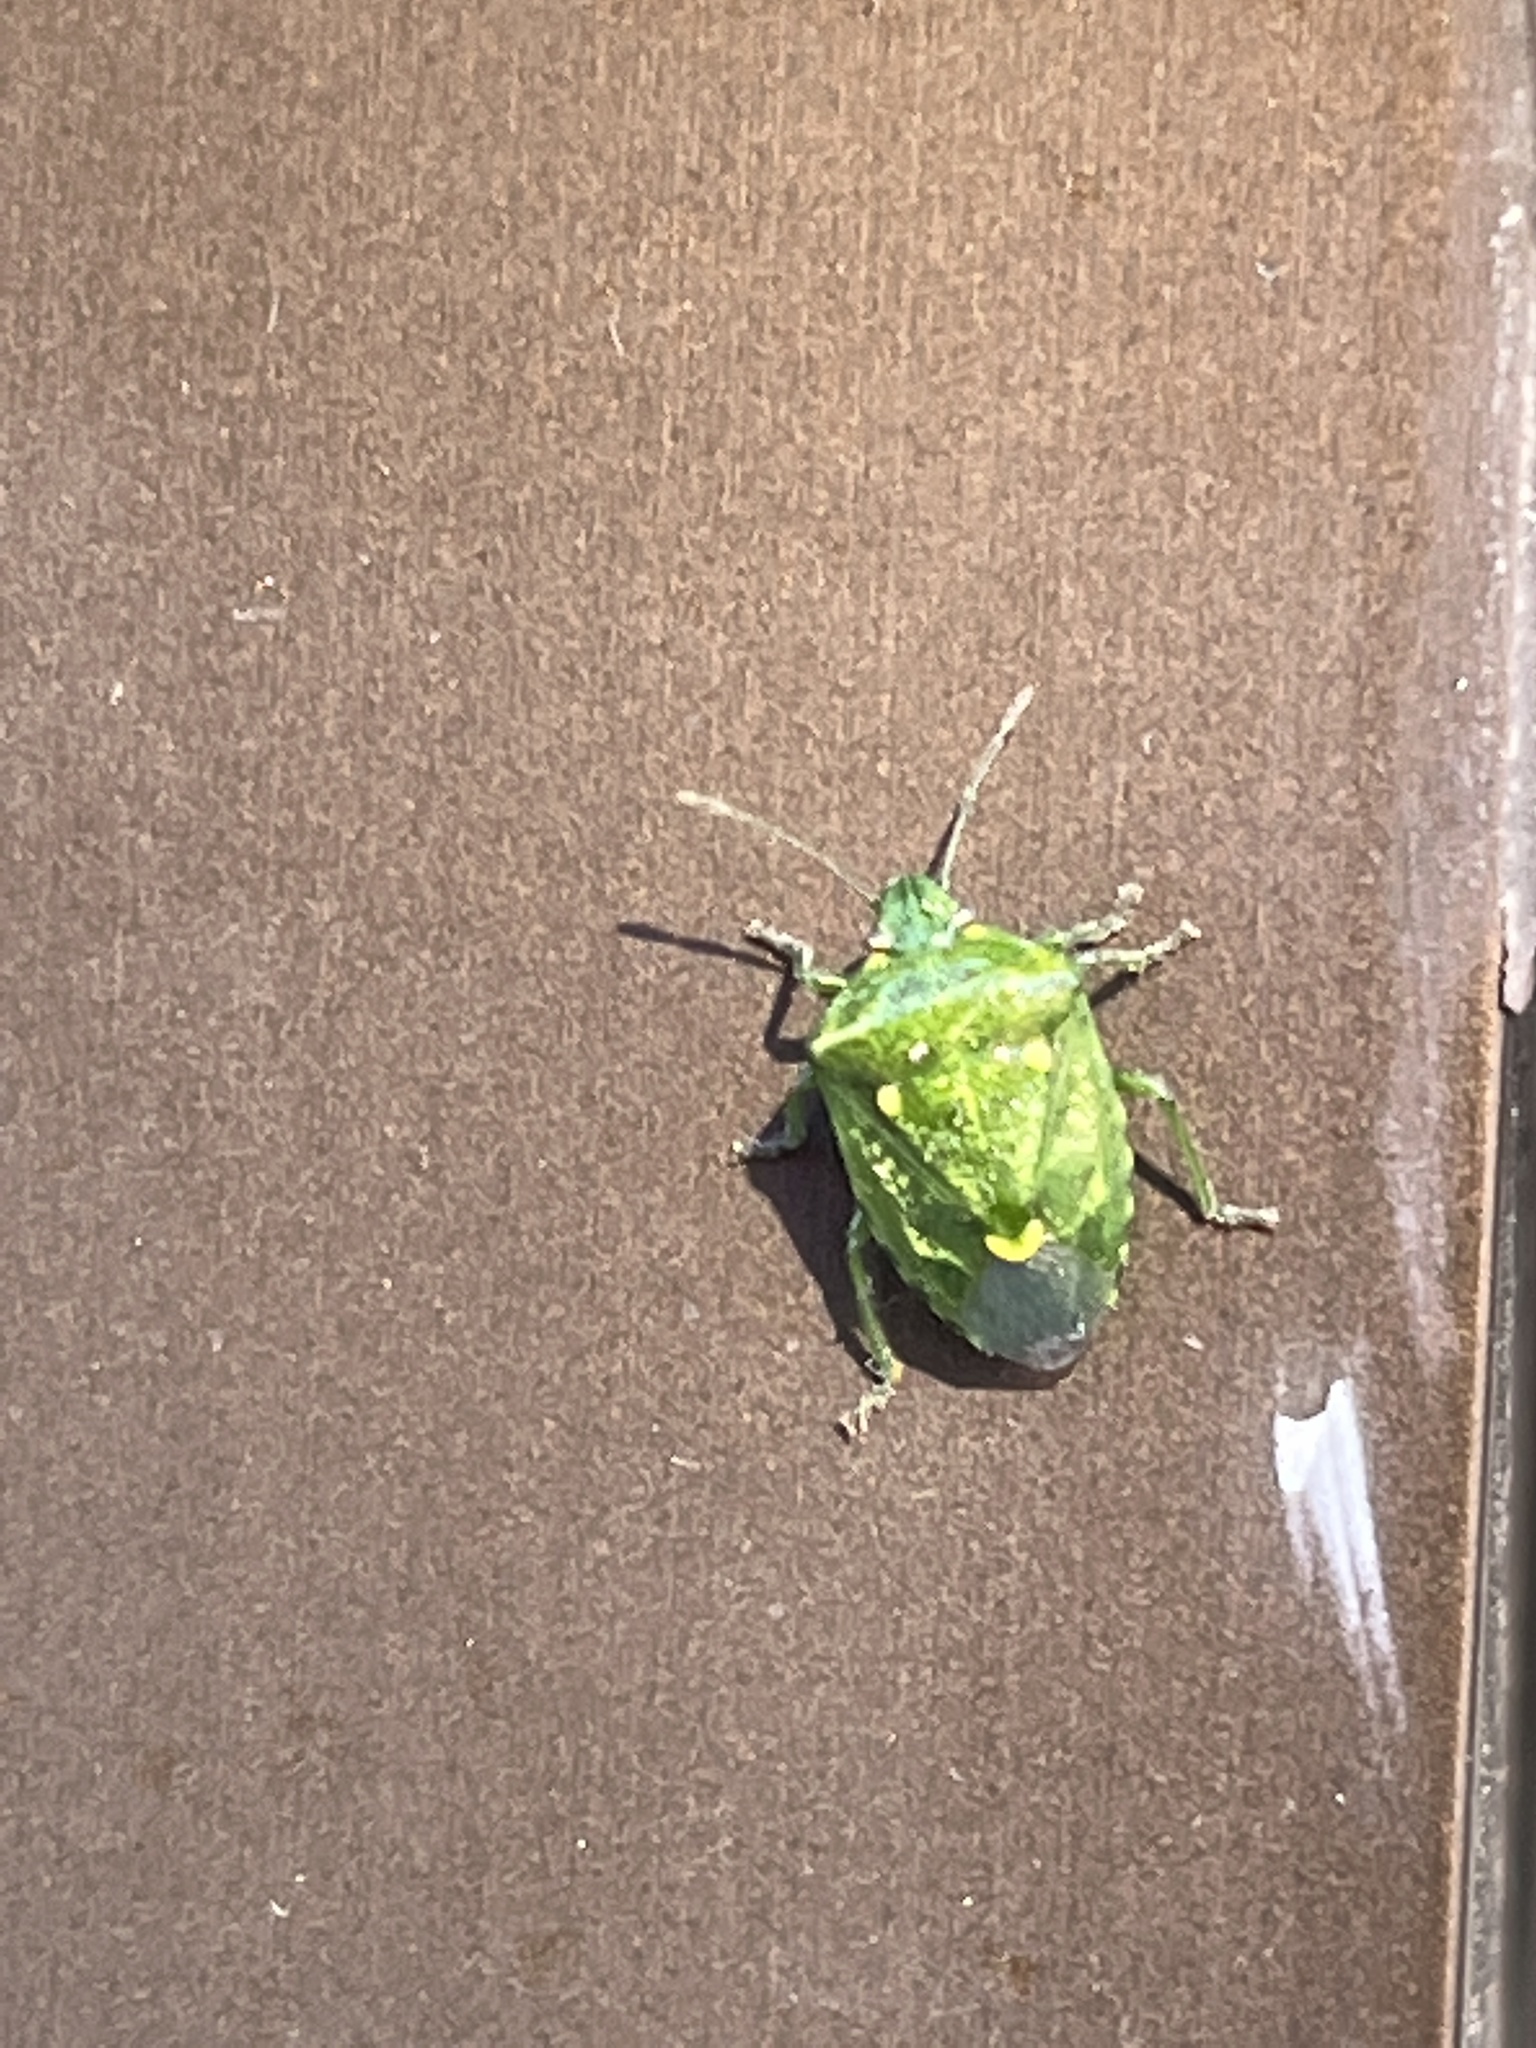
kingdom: Animalia
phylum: Arthropoda
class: Insecta
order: Hemiptera
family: Pentatomidae
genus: Banasa
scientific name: Banasa euchlora
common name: Cedar berry bug
